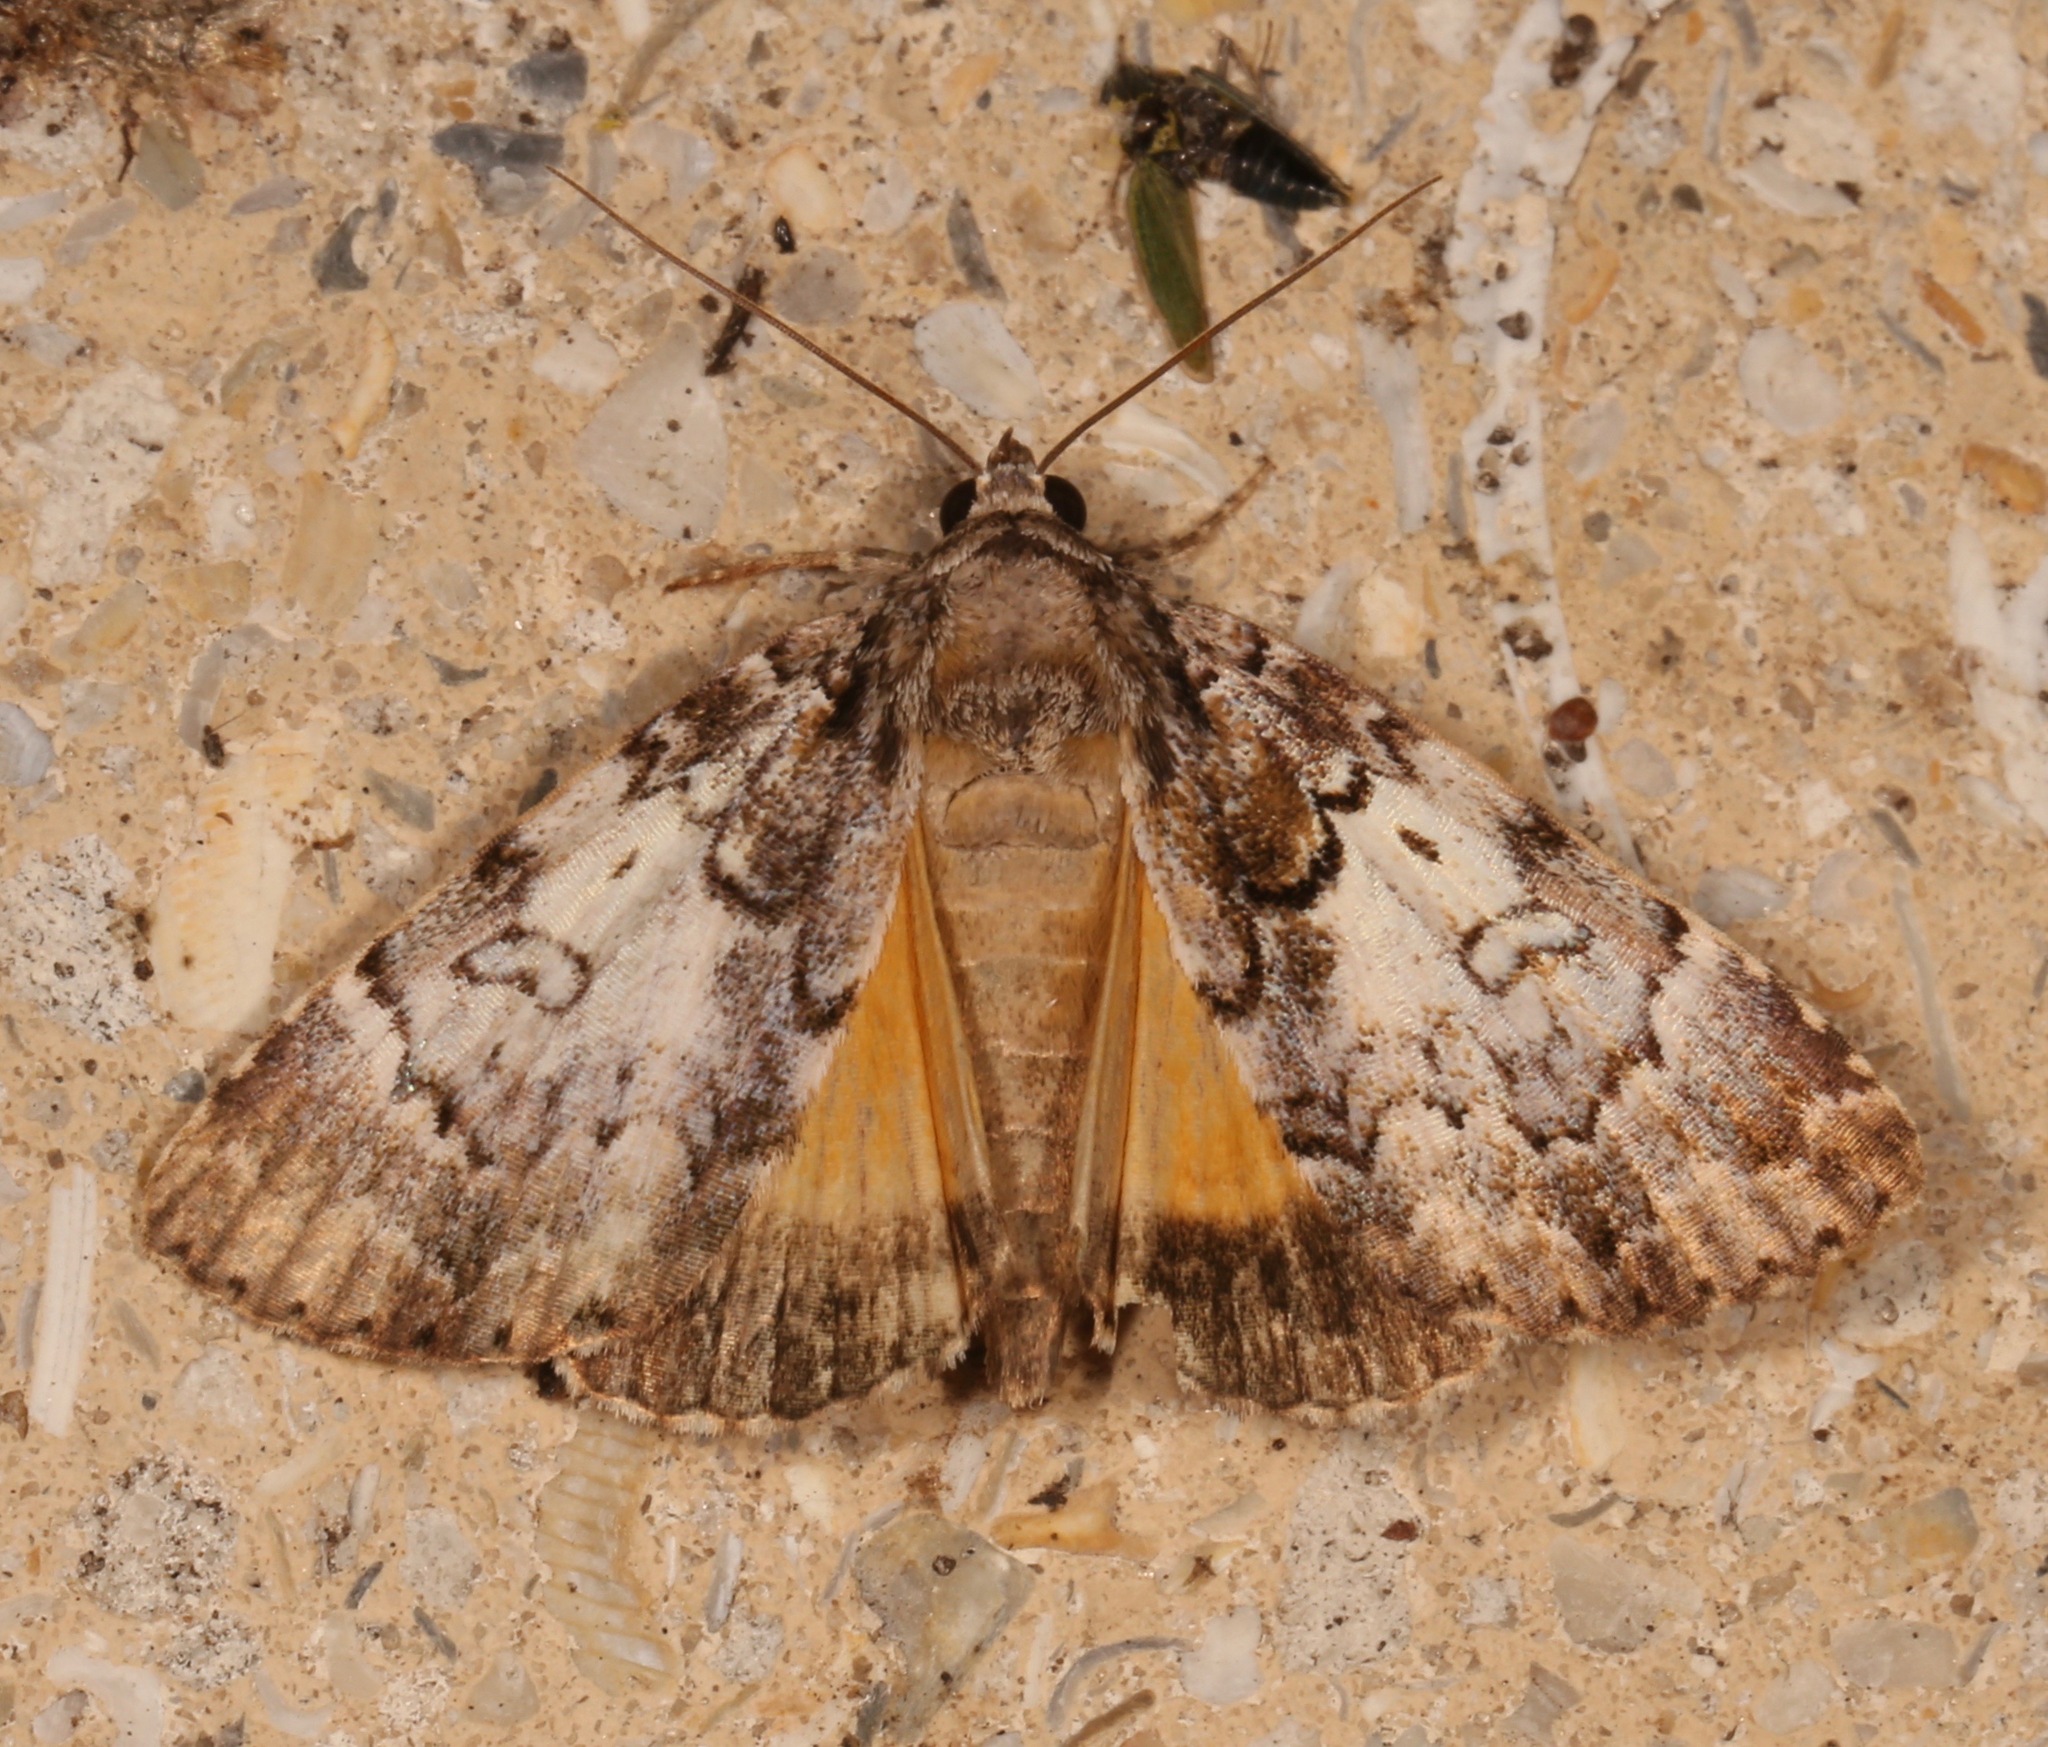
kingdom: Animalia
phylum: Arthropoda
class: Insecta
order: Lepidoptera
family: Erebidae
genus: Allotria
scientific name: Allotria elonympha
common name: False underwing
